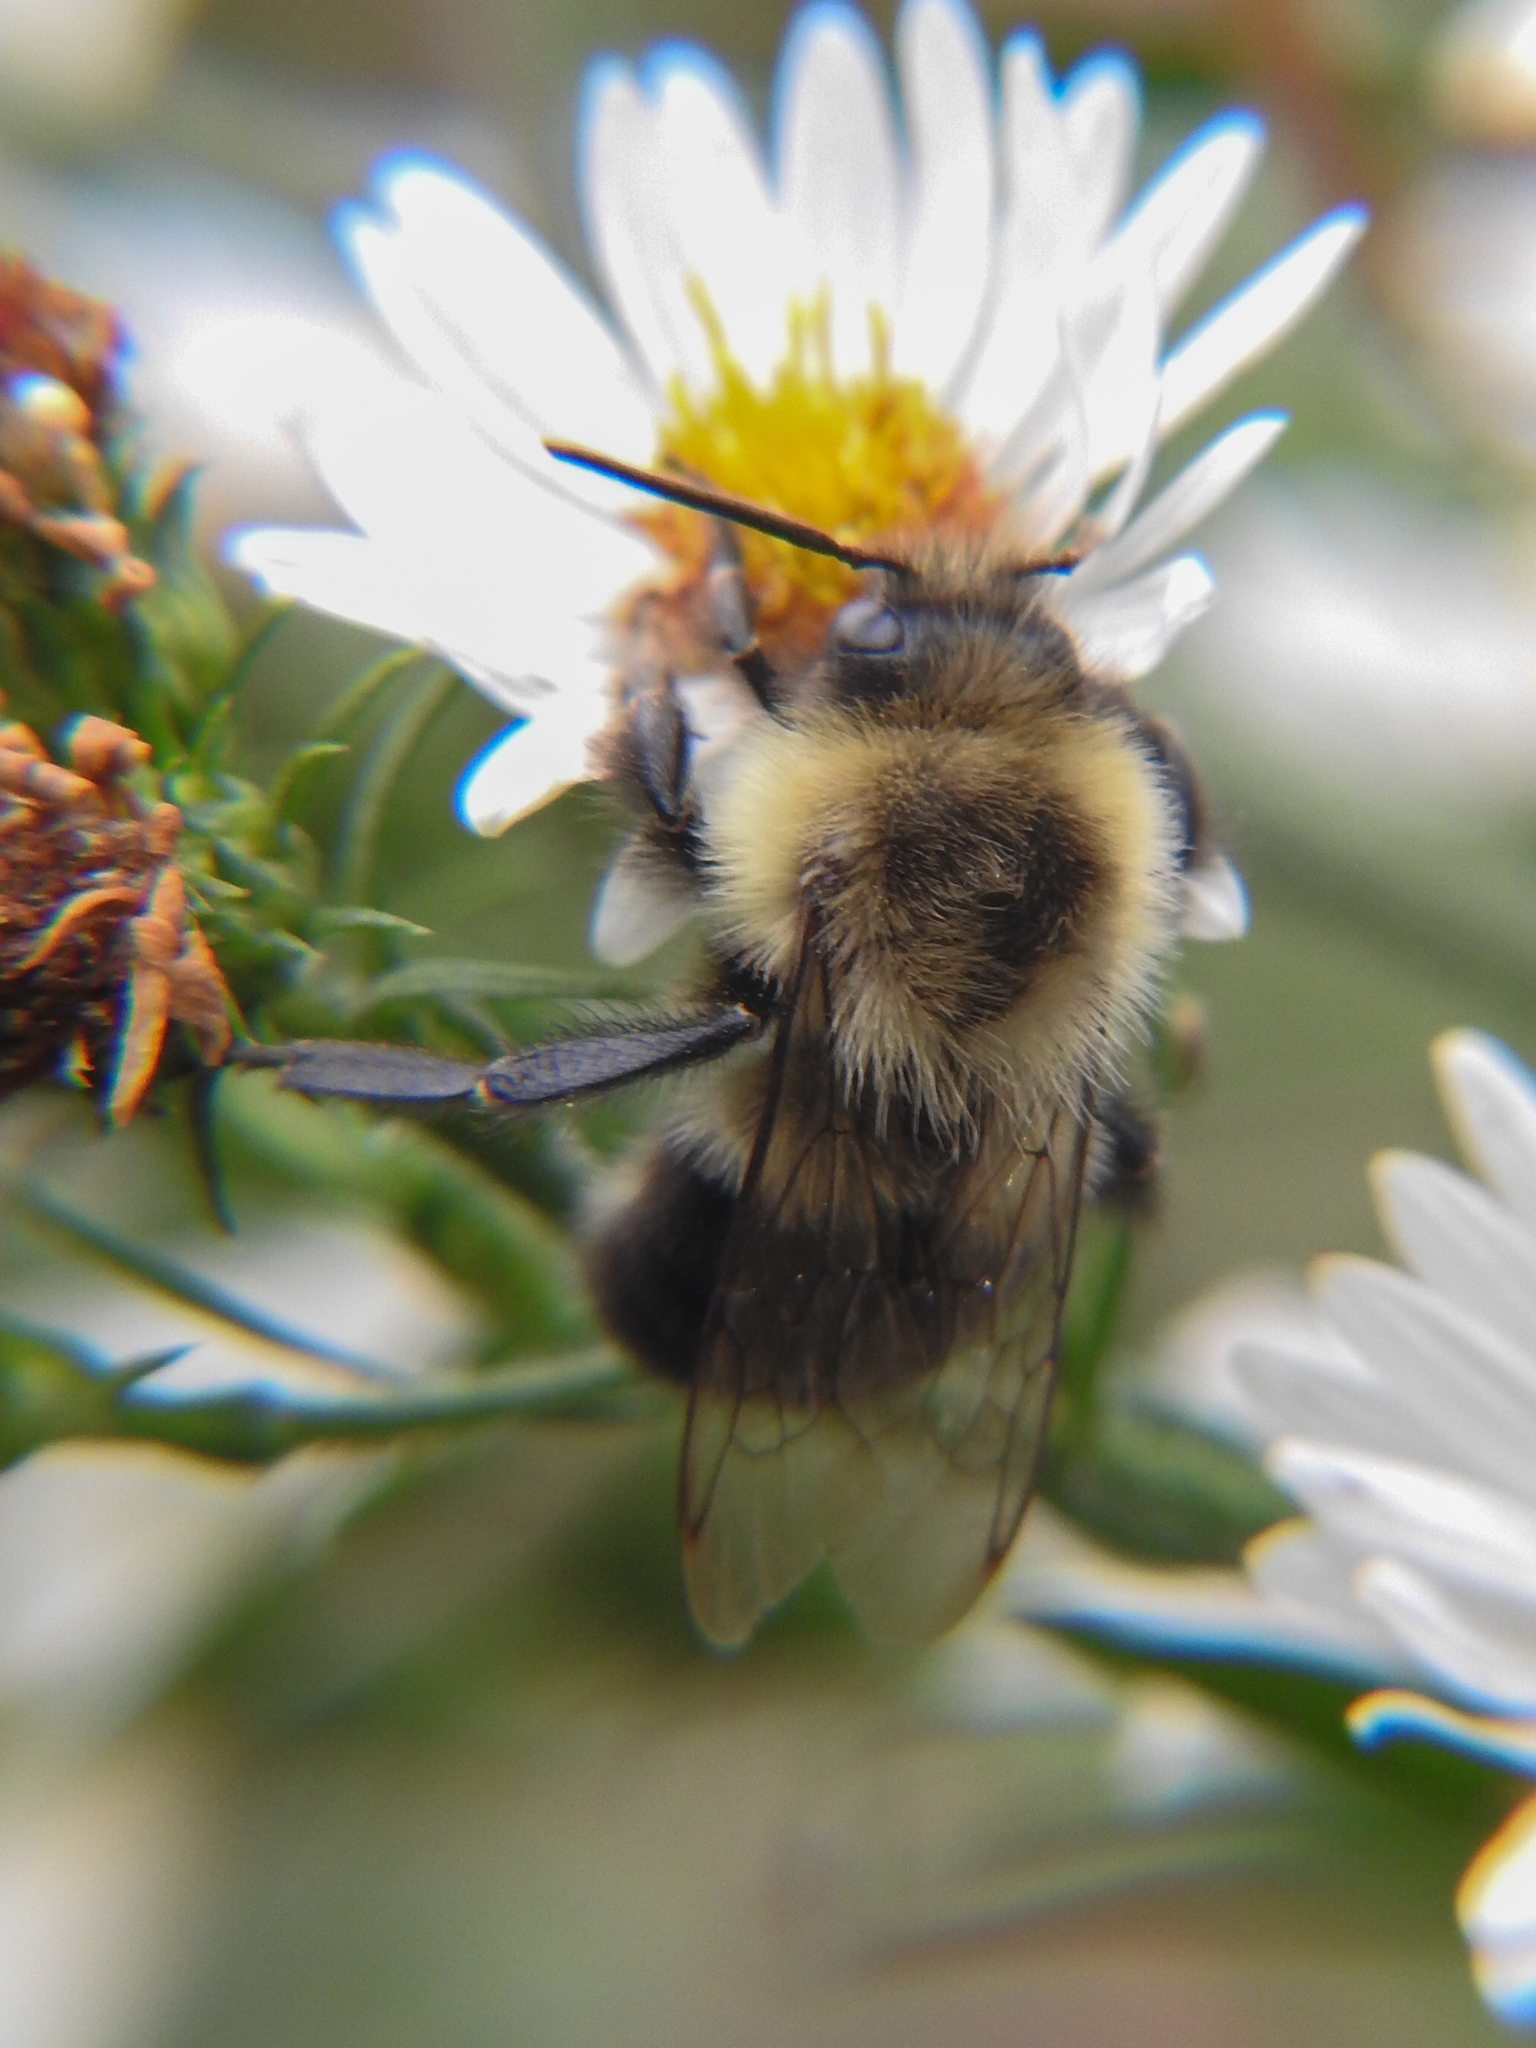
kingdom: Animalia
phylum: Arthropoda
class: Insecta
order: Hymenoptera
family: Apidae
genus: Bombus
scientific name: Bombus impatiens
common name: Common eastern bumble bee
